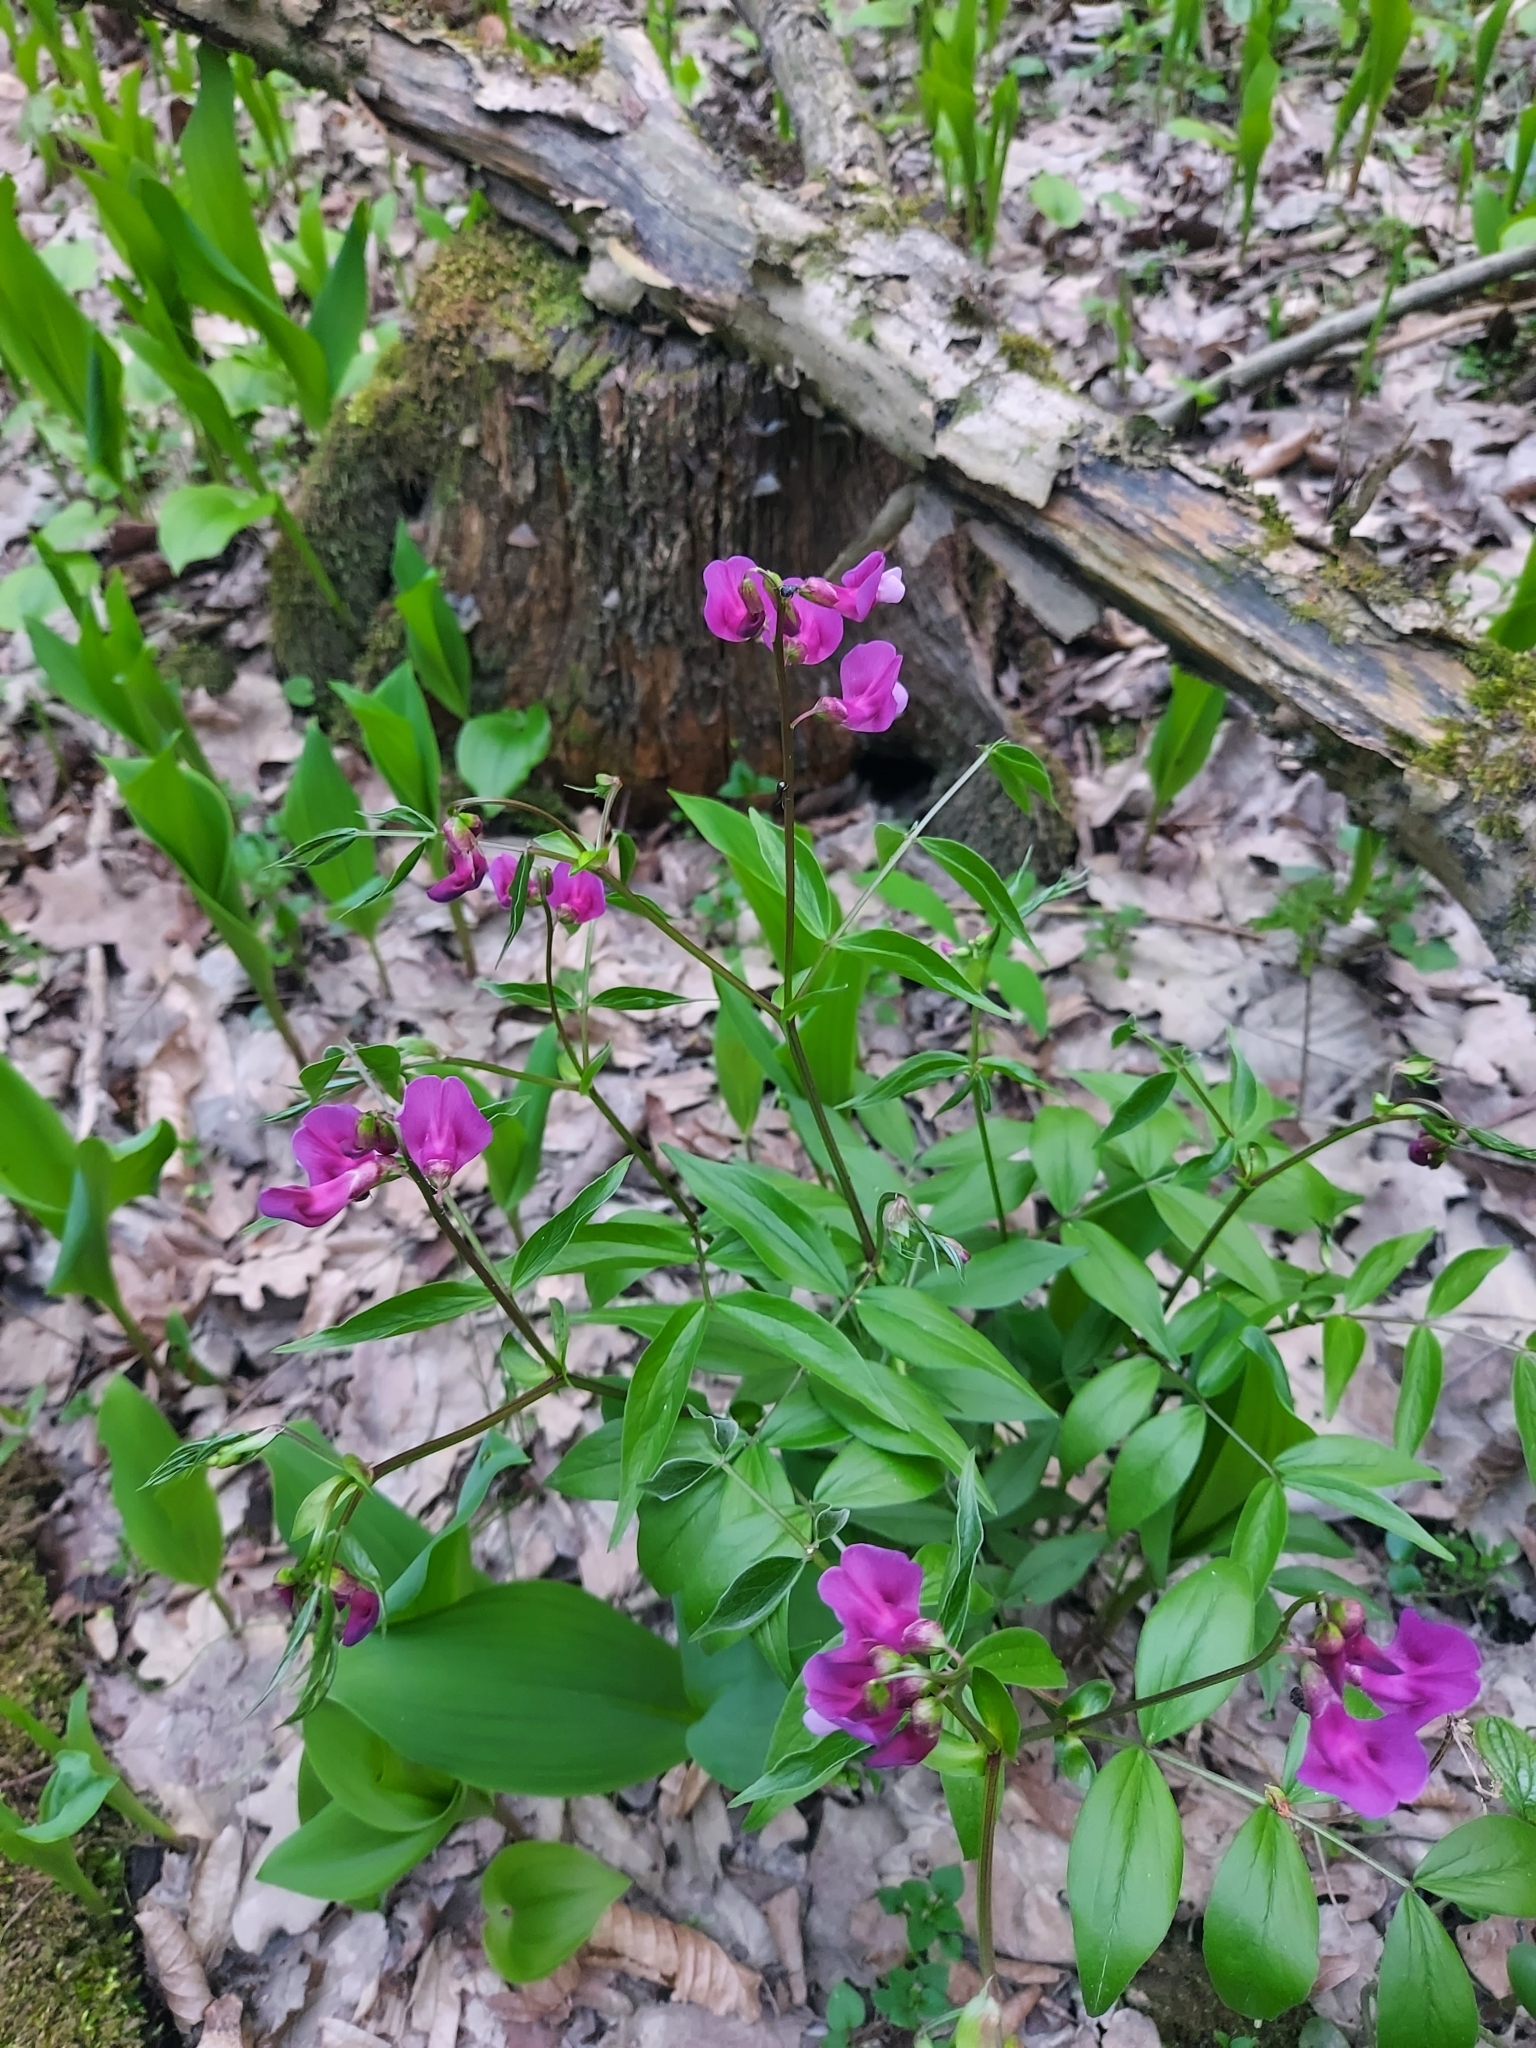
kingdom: Plantae
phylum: Tracheophyta
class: Magnoliopsida
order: Fabales
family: Fabaceae
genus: Lathyrus
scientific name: Lathyrus vernus
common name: Spring pea
